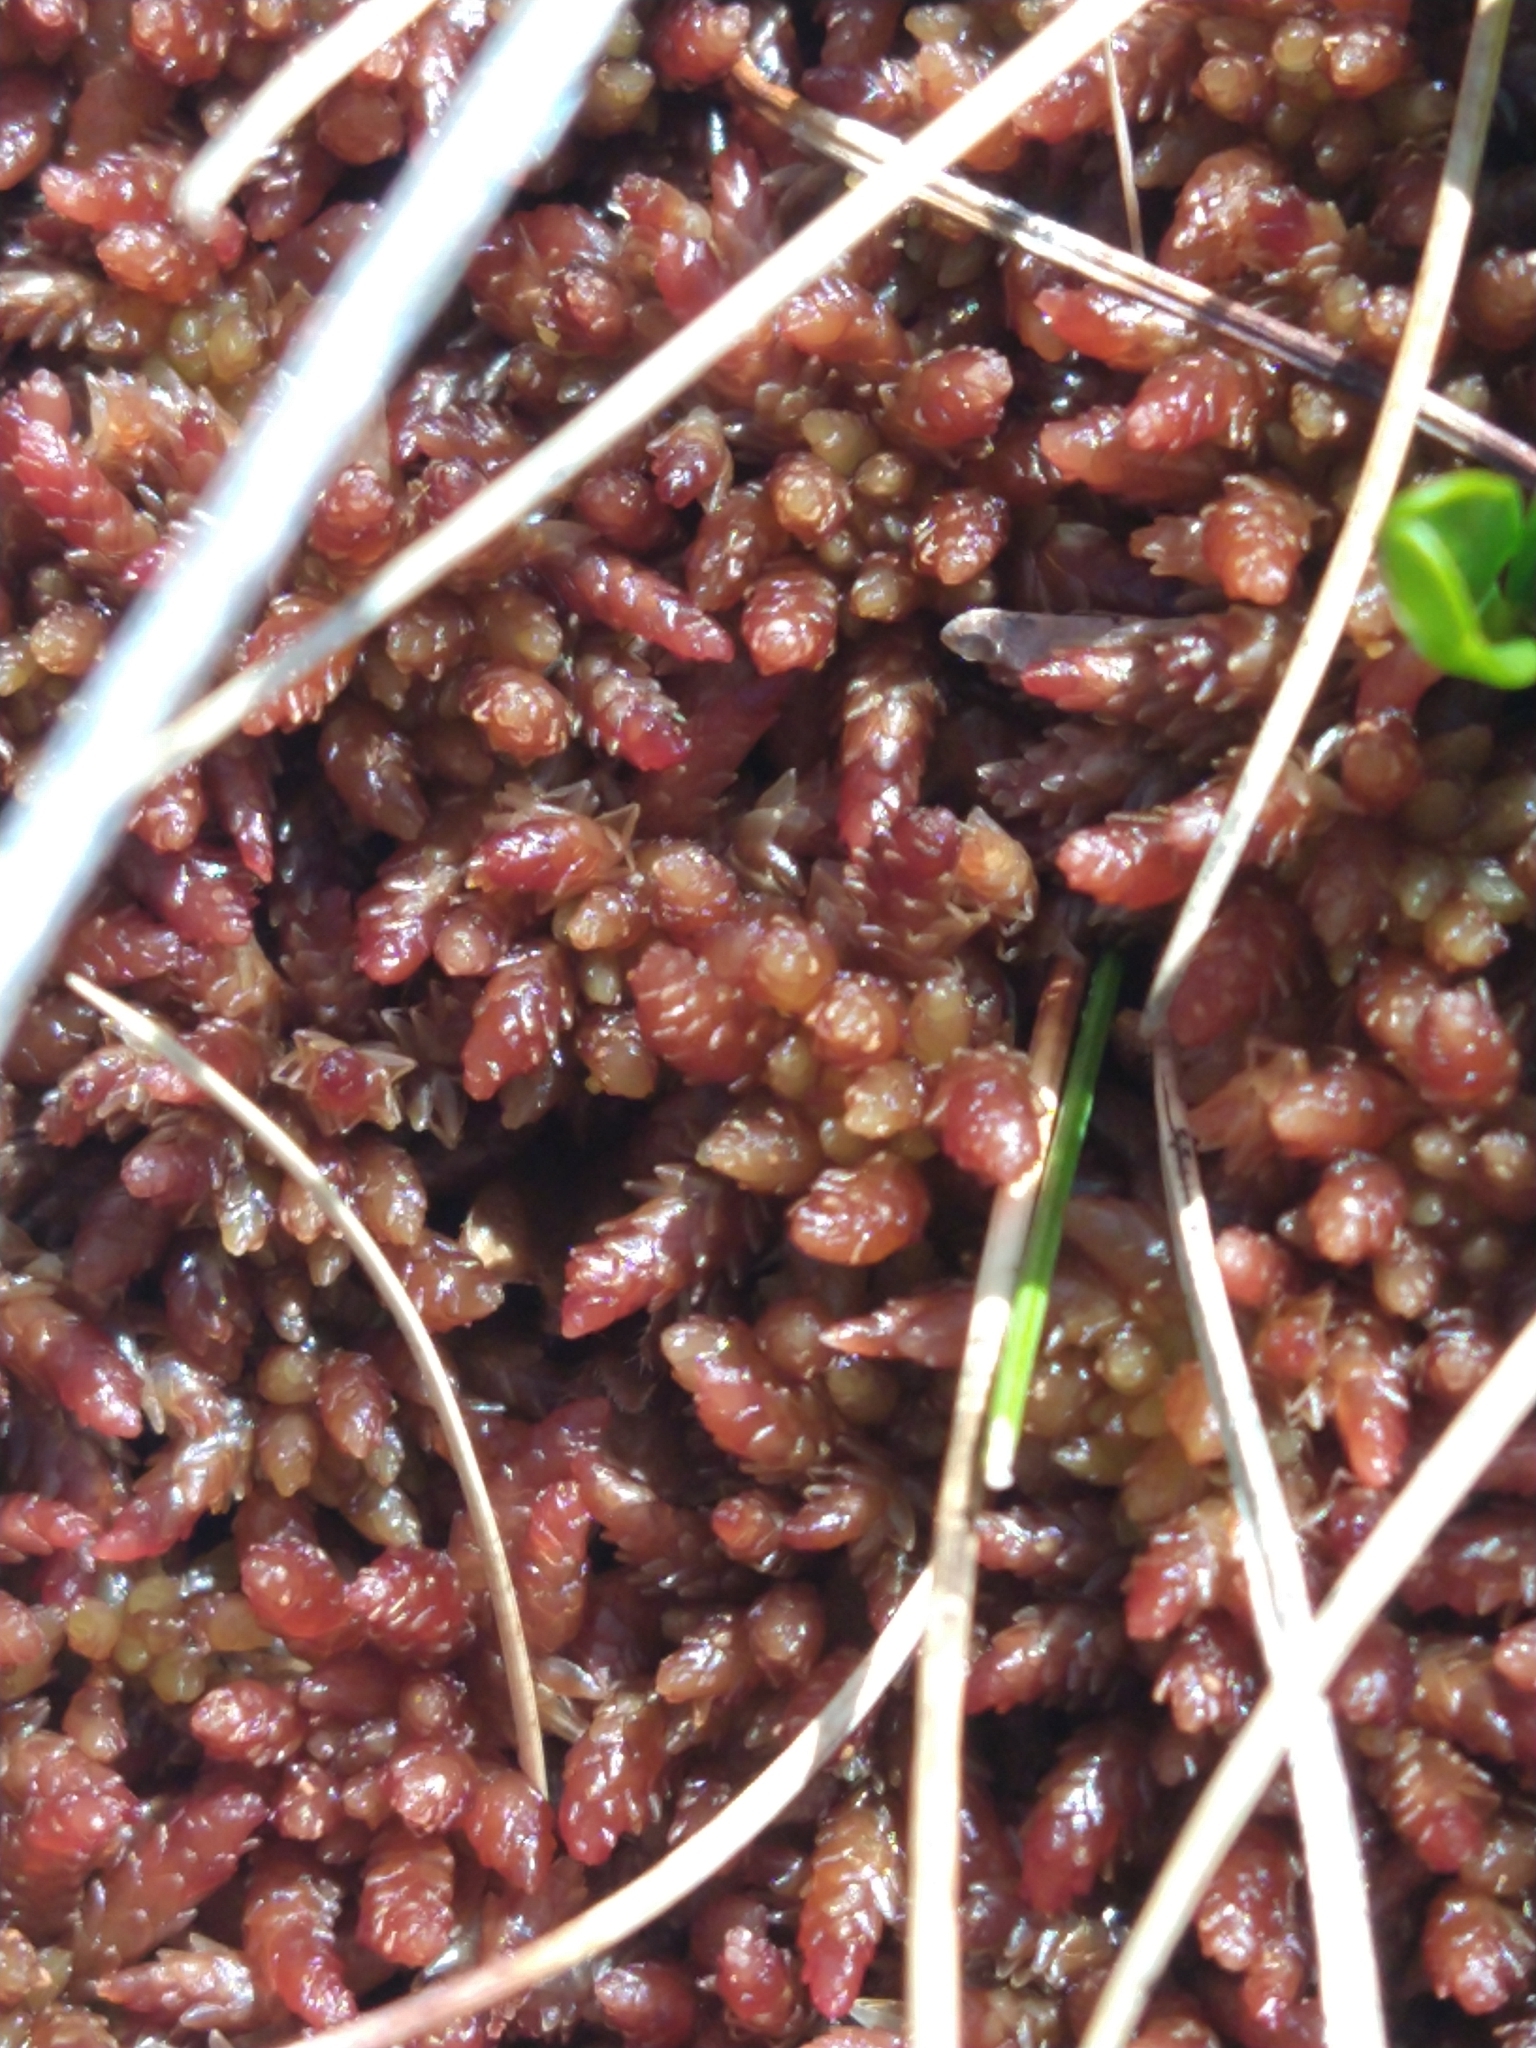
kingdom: Plantae
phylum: Bryophyta
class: Sphagnopsida
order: Sphagnales
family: Sphagnaceae
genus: Sphagnum
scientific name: Sphagnum magellanicum
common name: Magellan's peat moss
